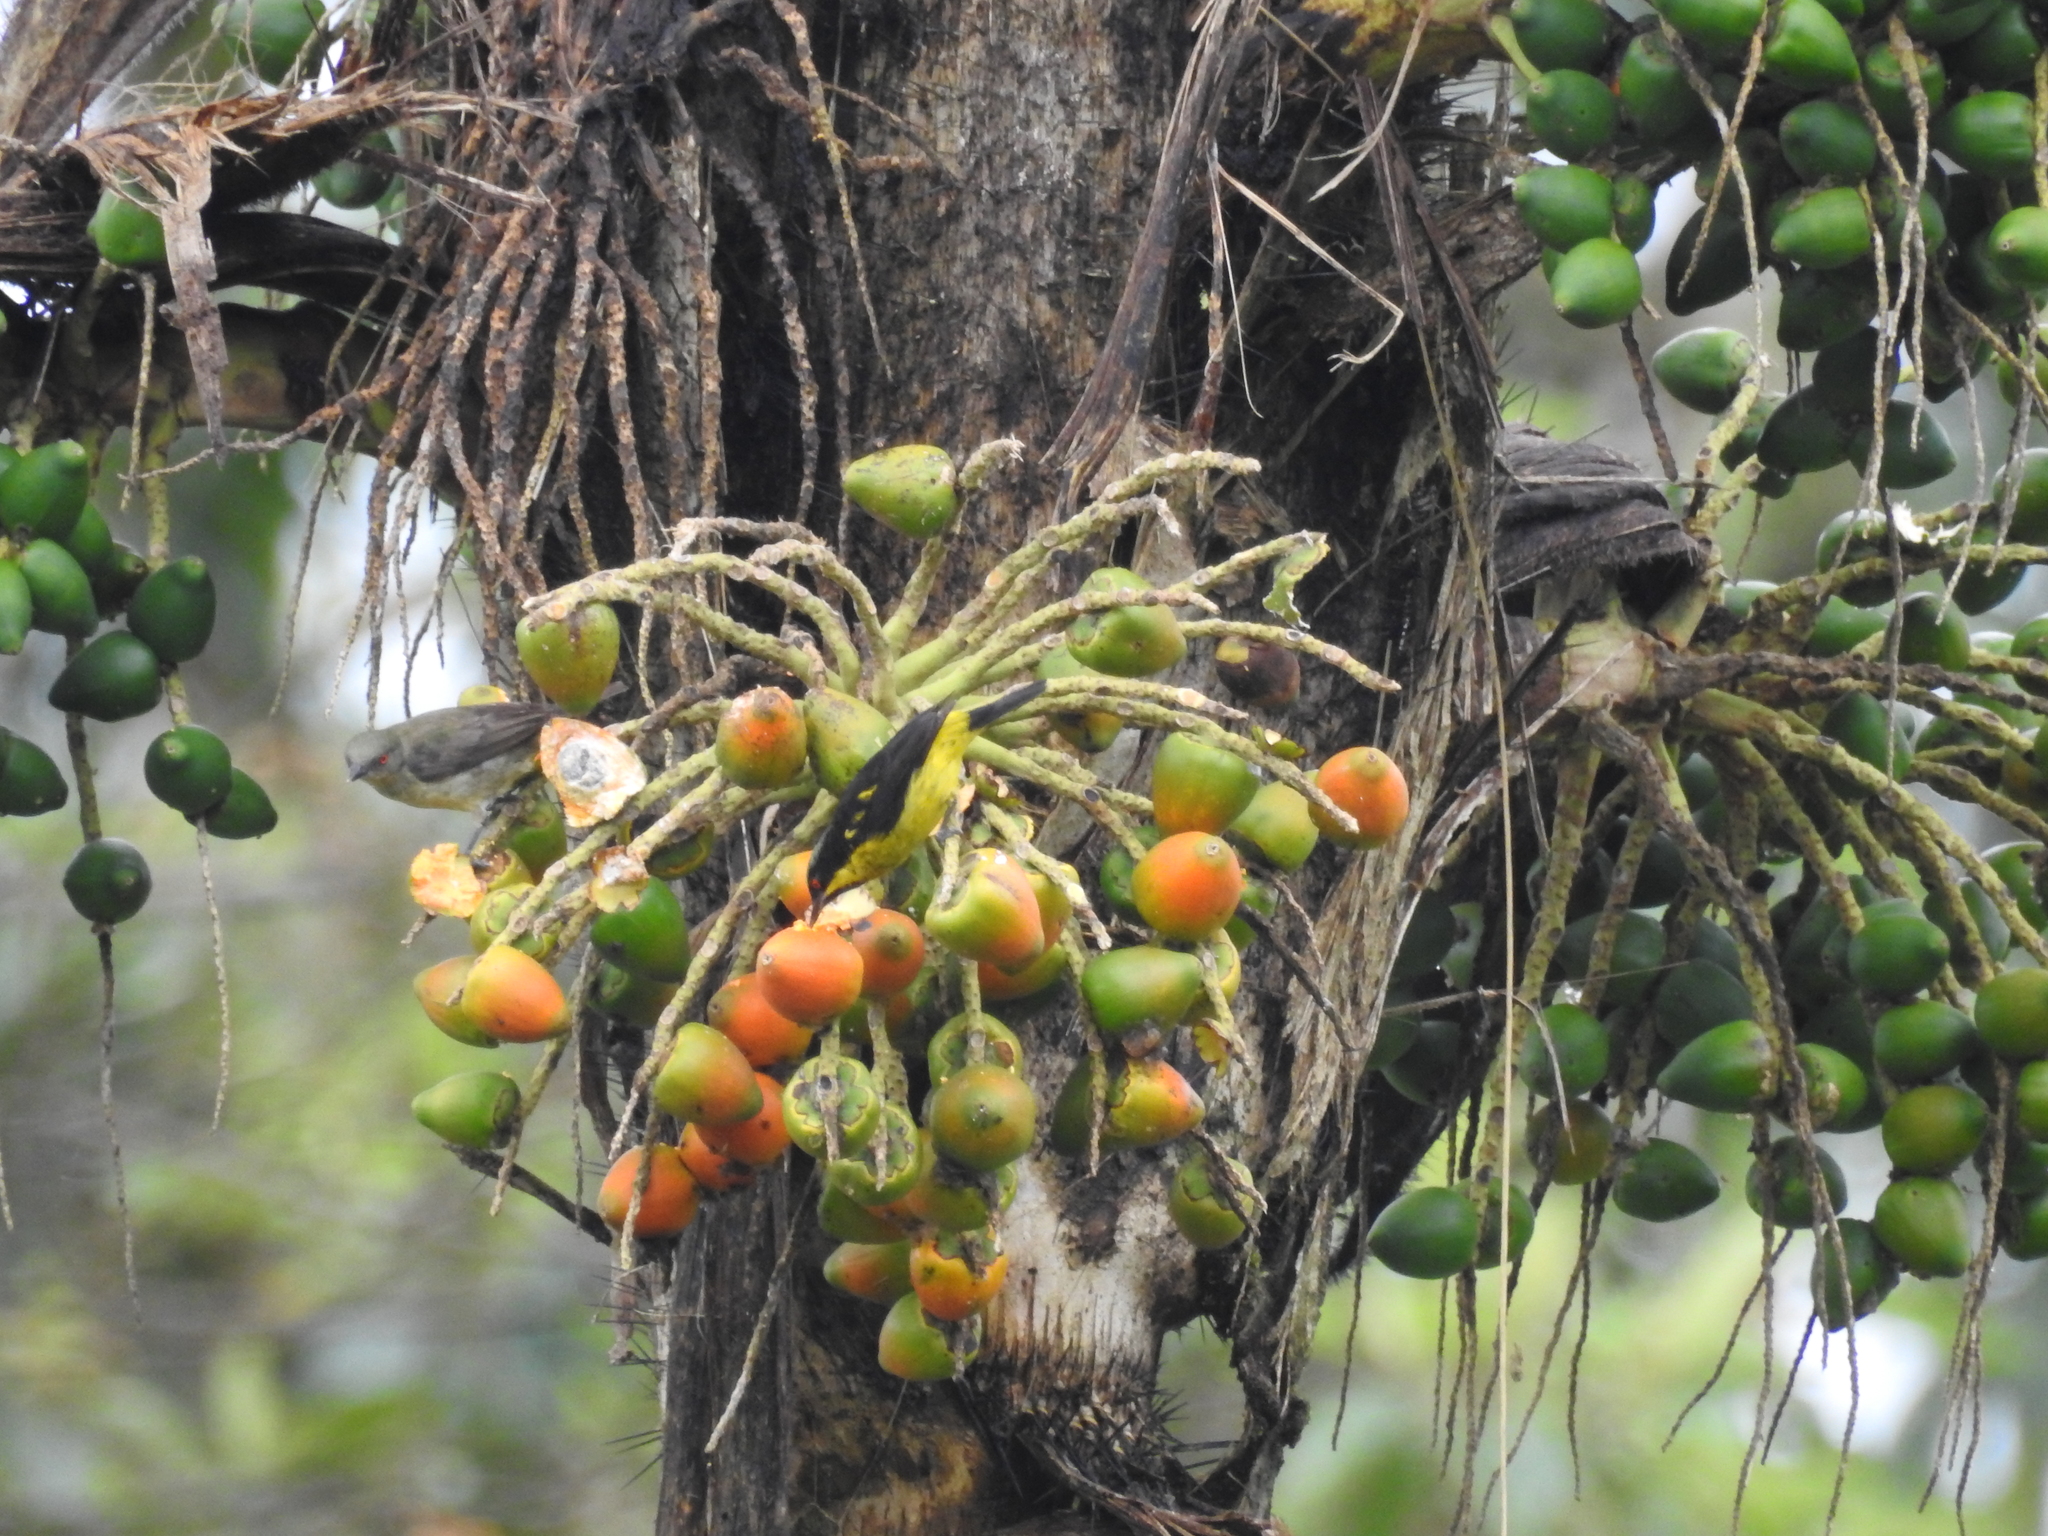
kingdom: Animalia
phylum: Chordata
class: Aves
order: Passeriformes
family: Thraupidae
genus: Dacnis
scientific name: Dacnis flaviventer
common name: Yellow-bellied dacnis
